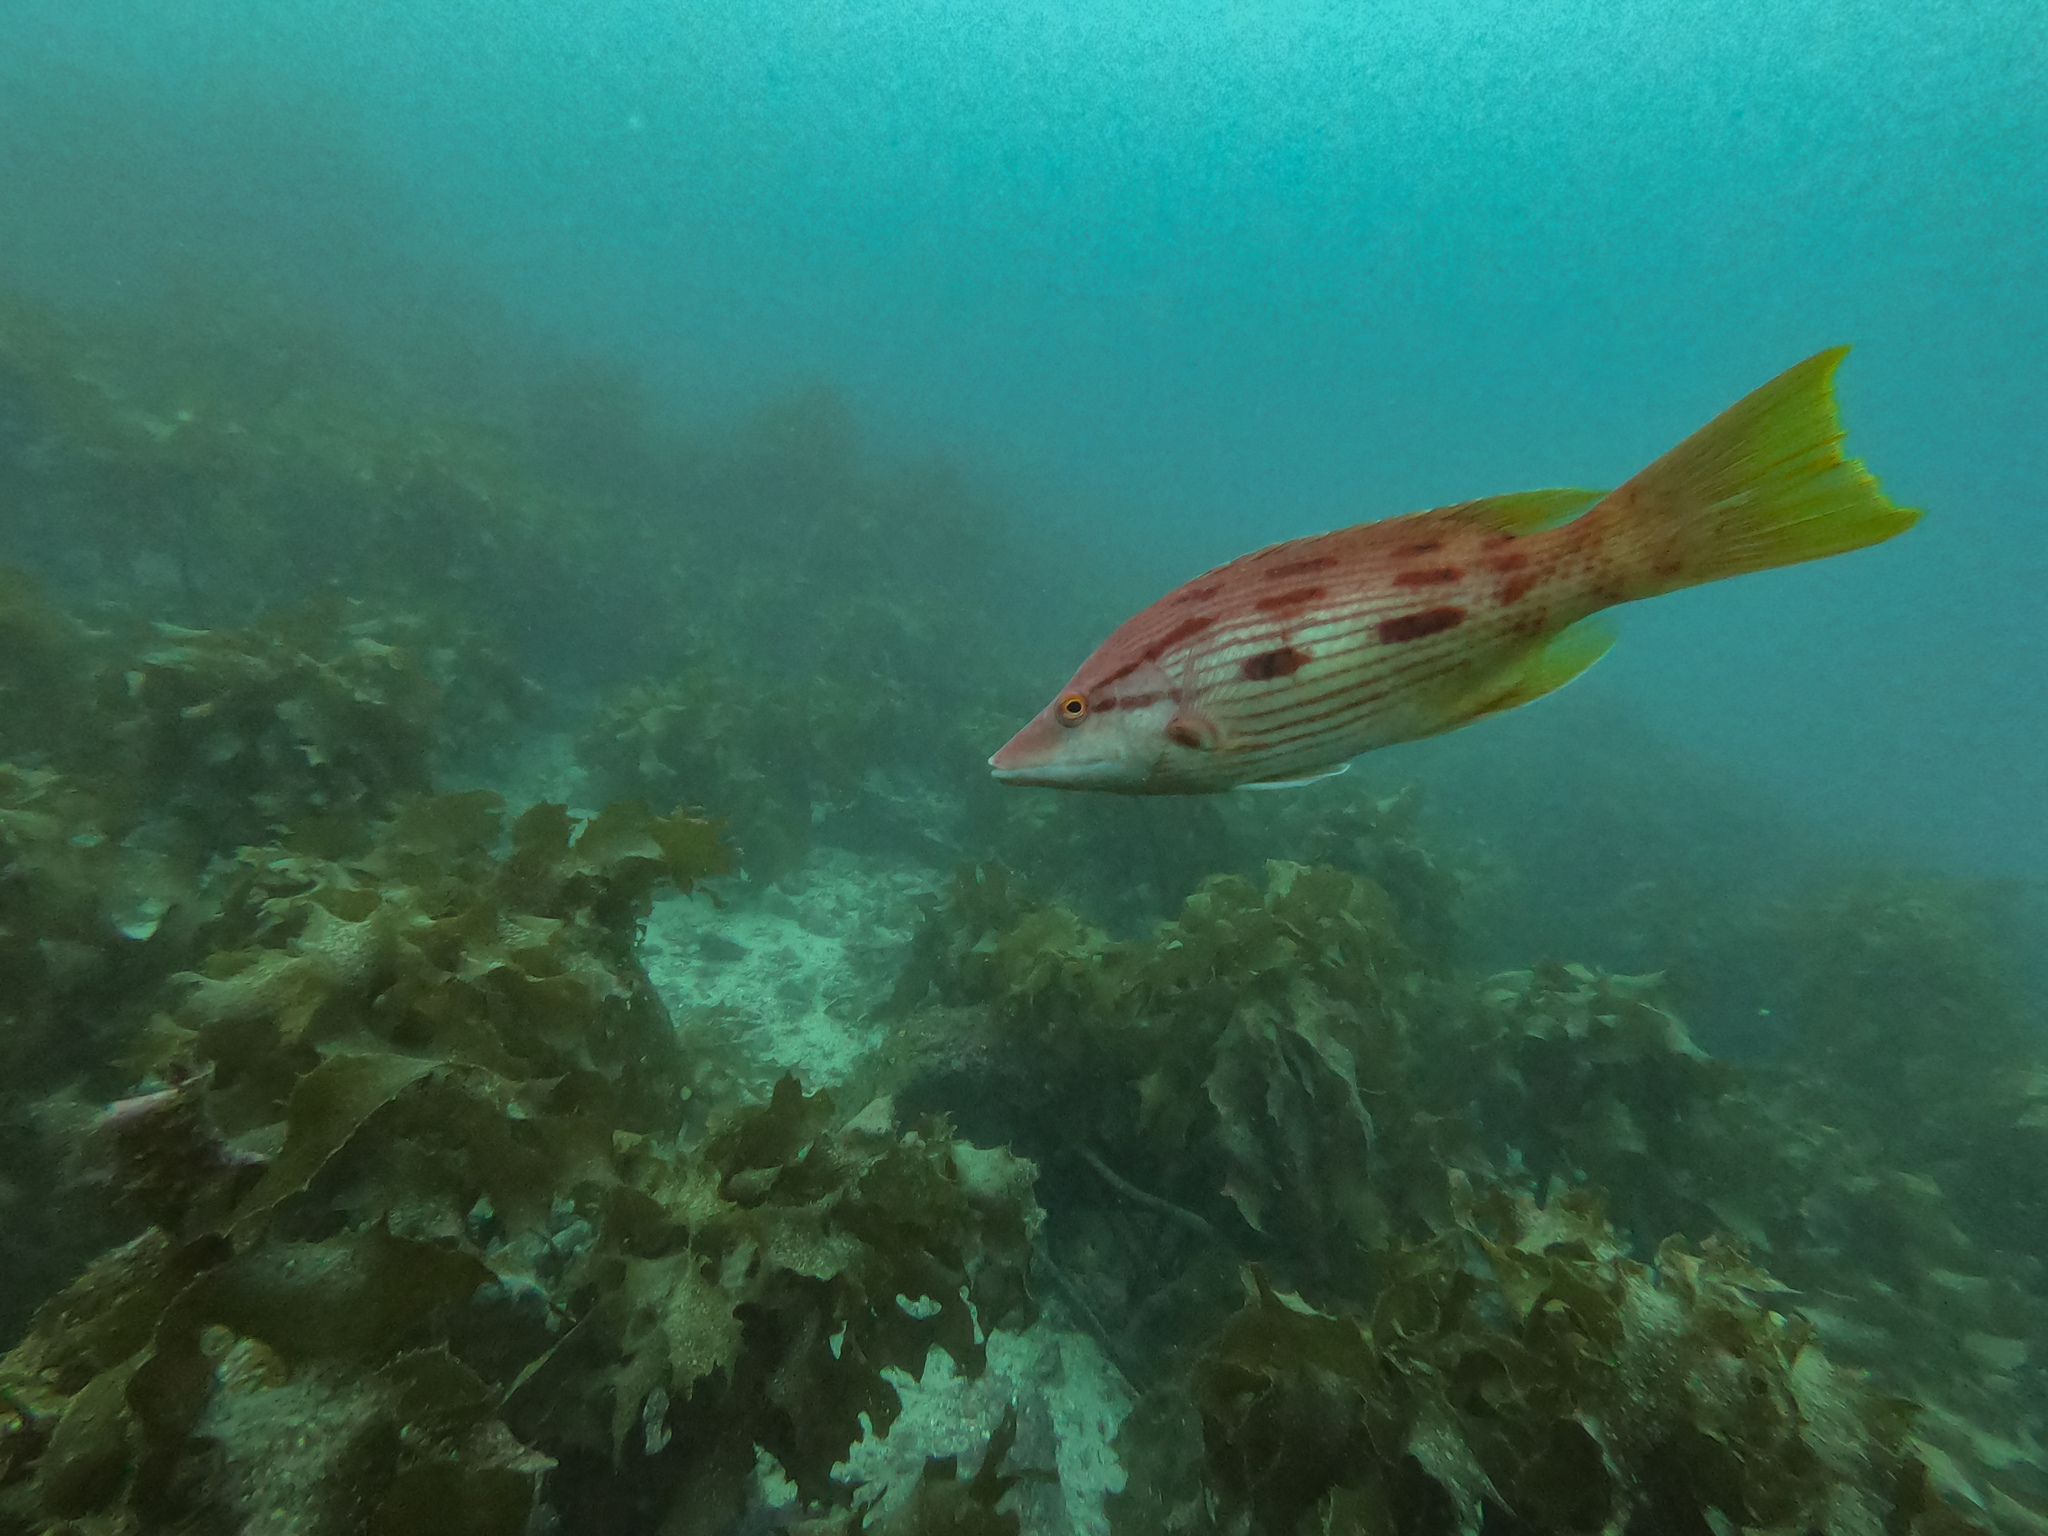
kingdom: Animalia
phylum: Chordata
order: Perciformes
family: Labridae
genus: Bodianus
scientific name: Bodianus unimaculatus
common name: Pigfish
